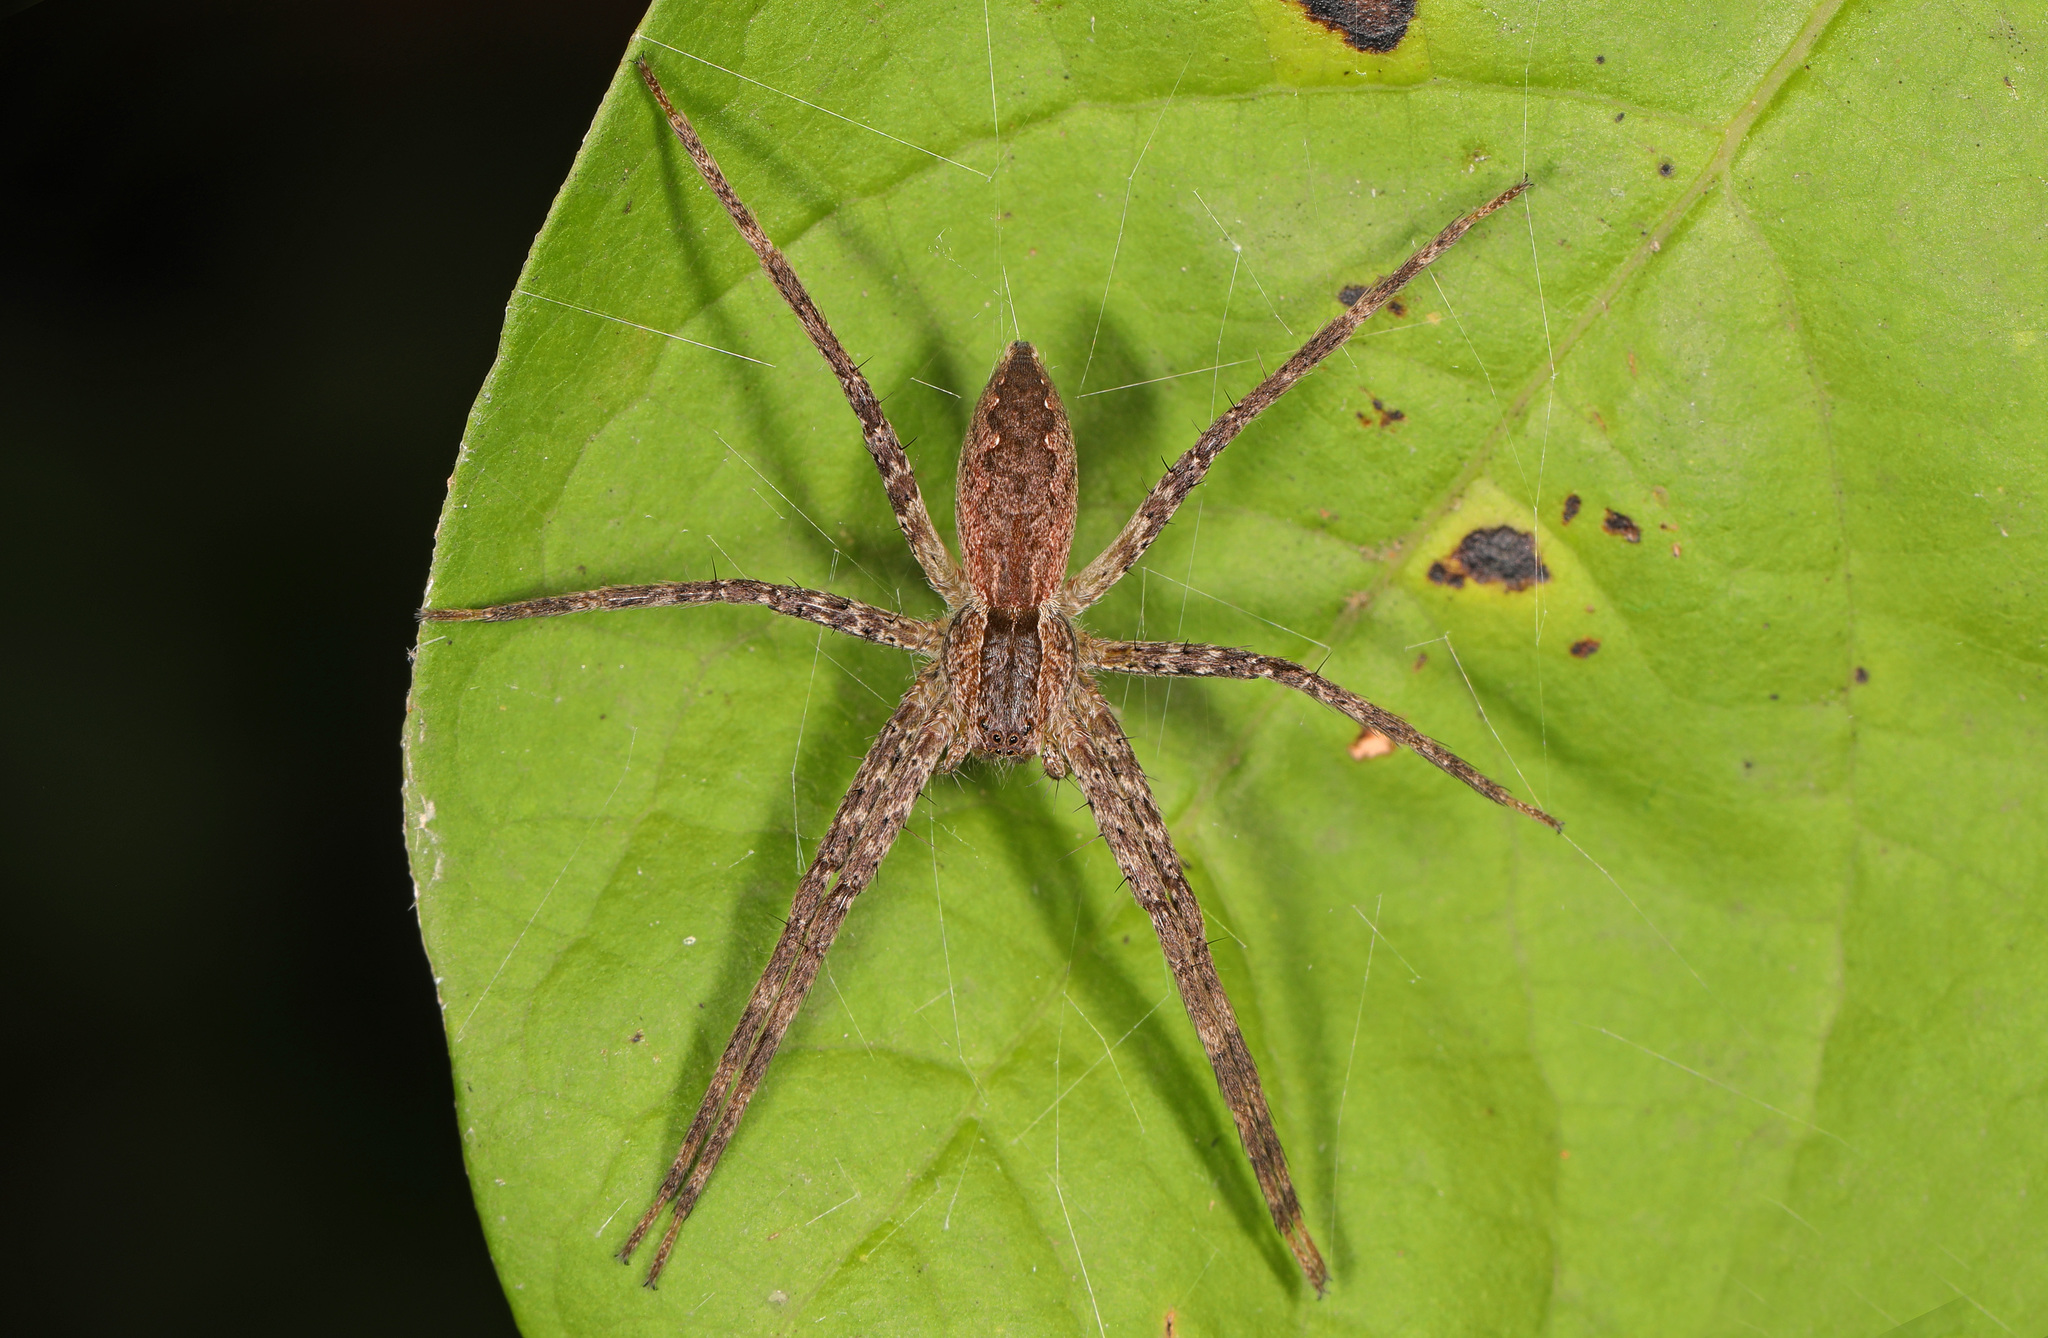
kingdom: Animalia
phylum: Arthropoda
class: Arachnida
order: Araneae
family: Pisauridae
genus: Pisaurina
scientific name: Pisaurina mira
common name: American nursery web spider
